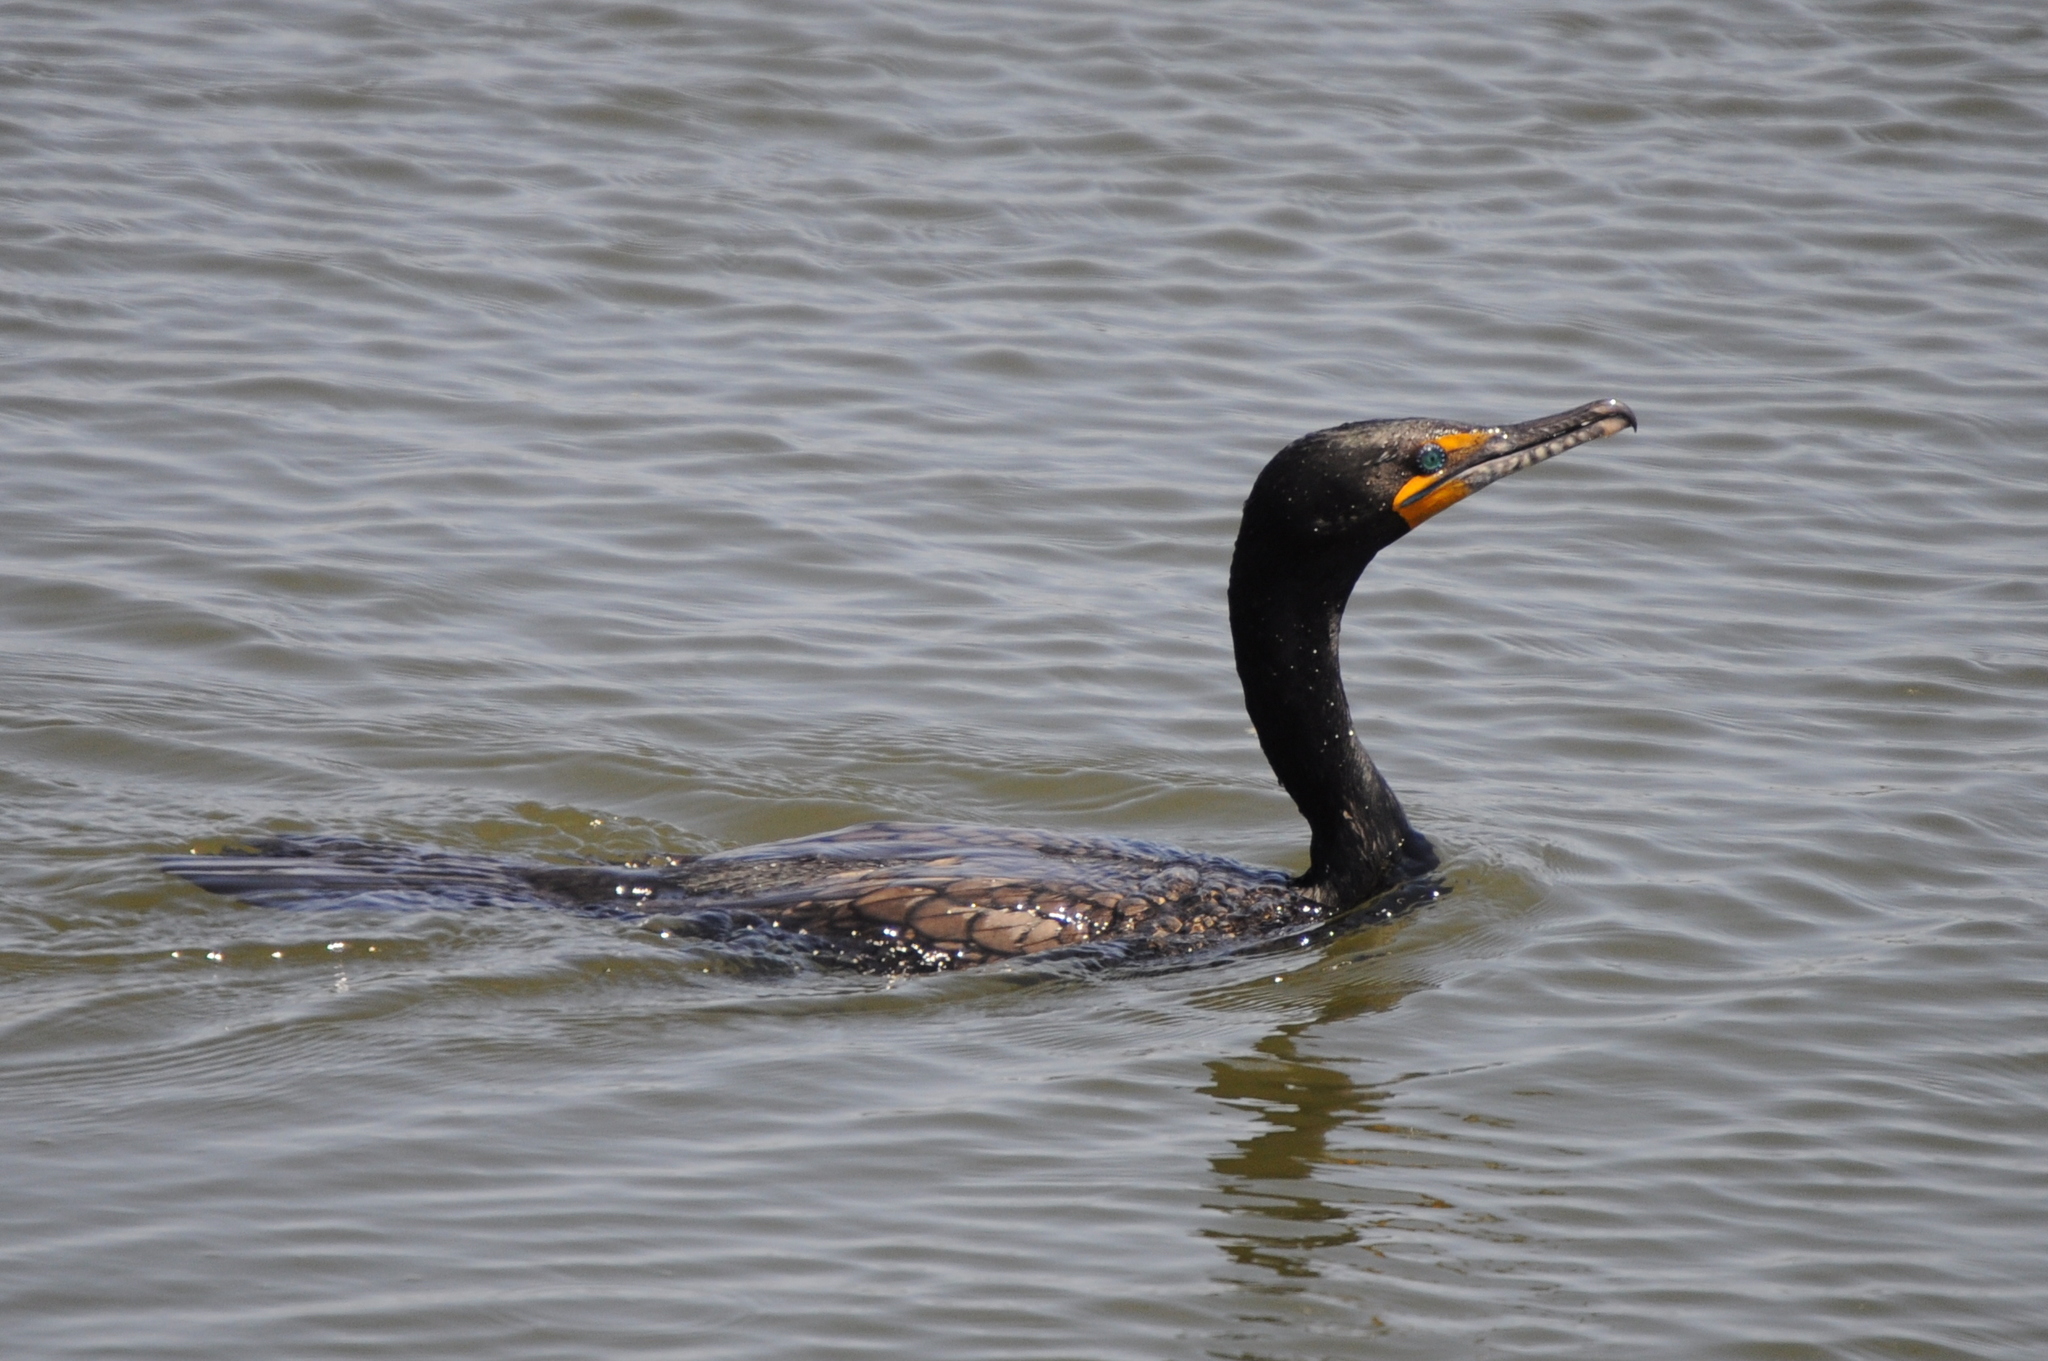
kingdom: Animalia
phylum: Chordata
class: Aves
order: Suliformes
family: Phalacrocoracidae
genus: Phalacrocorax
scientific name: Phalacrocorax auritus
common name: Double-crested cormorant
